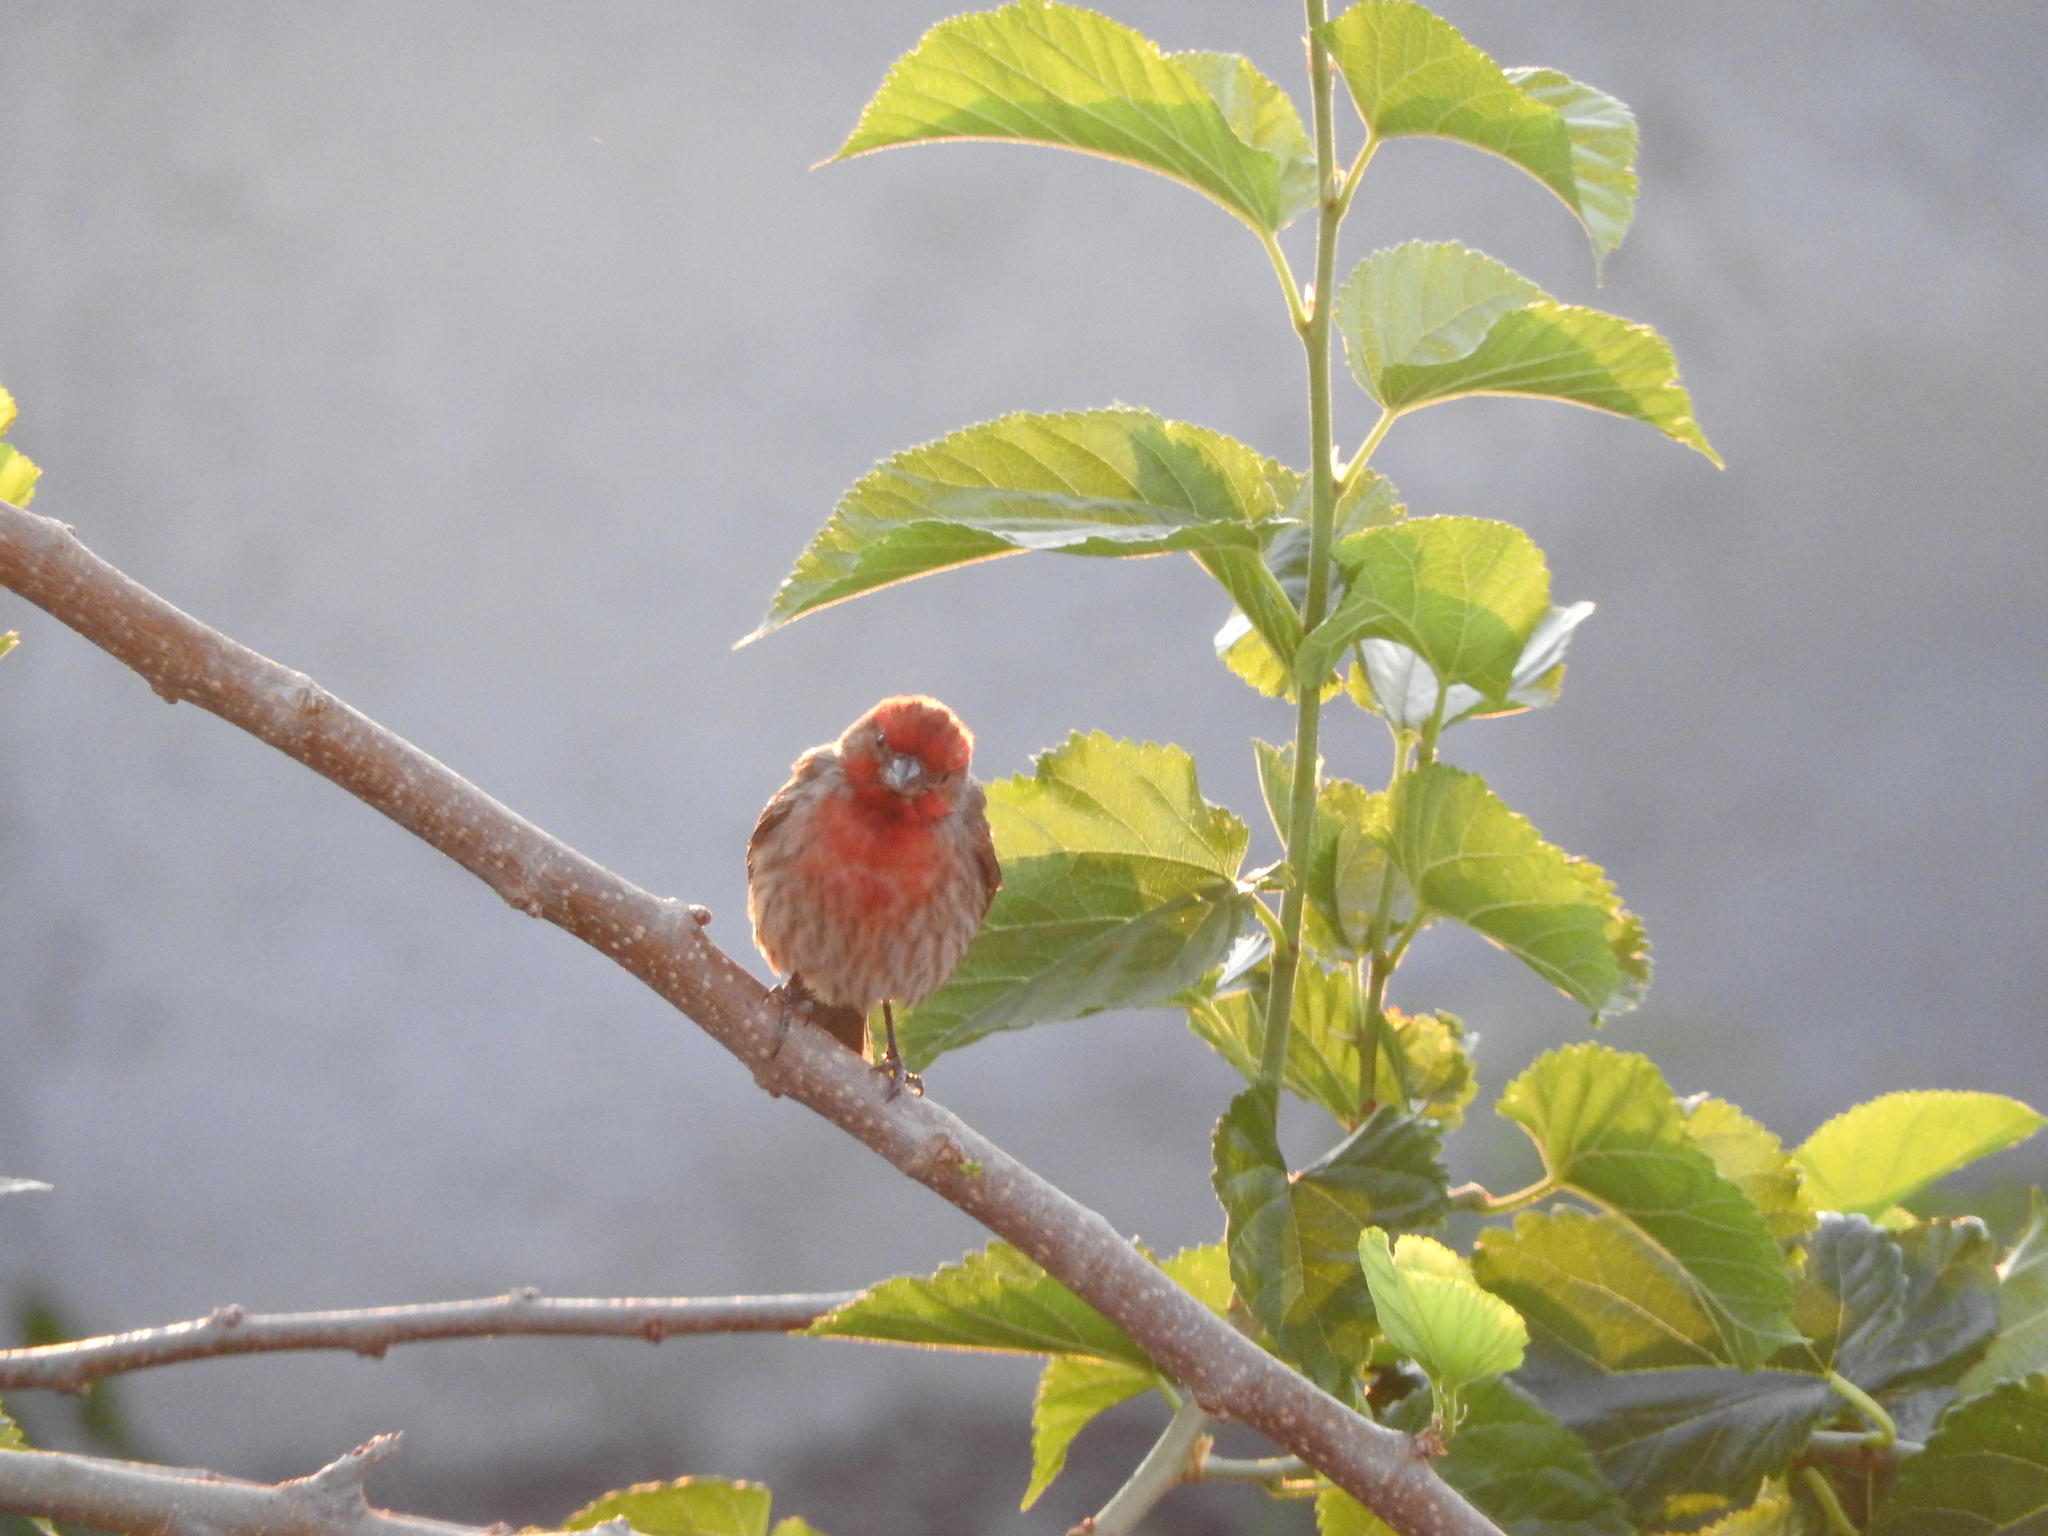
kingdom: Animalia
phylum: Chordata
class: Aves
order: Passeriformes
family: Fringillidae
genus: Haemorhous
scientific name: Haemorhous mexicanus
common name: House finch
